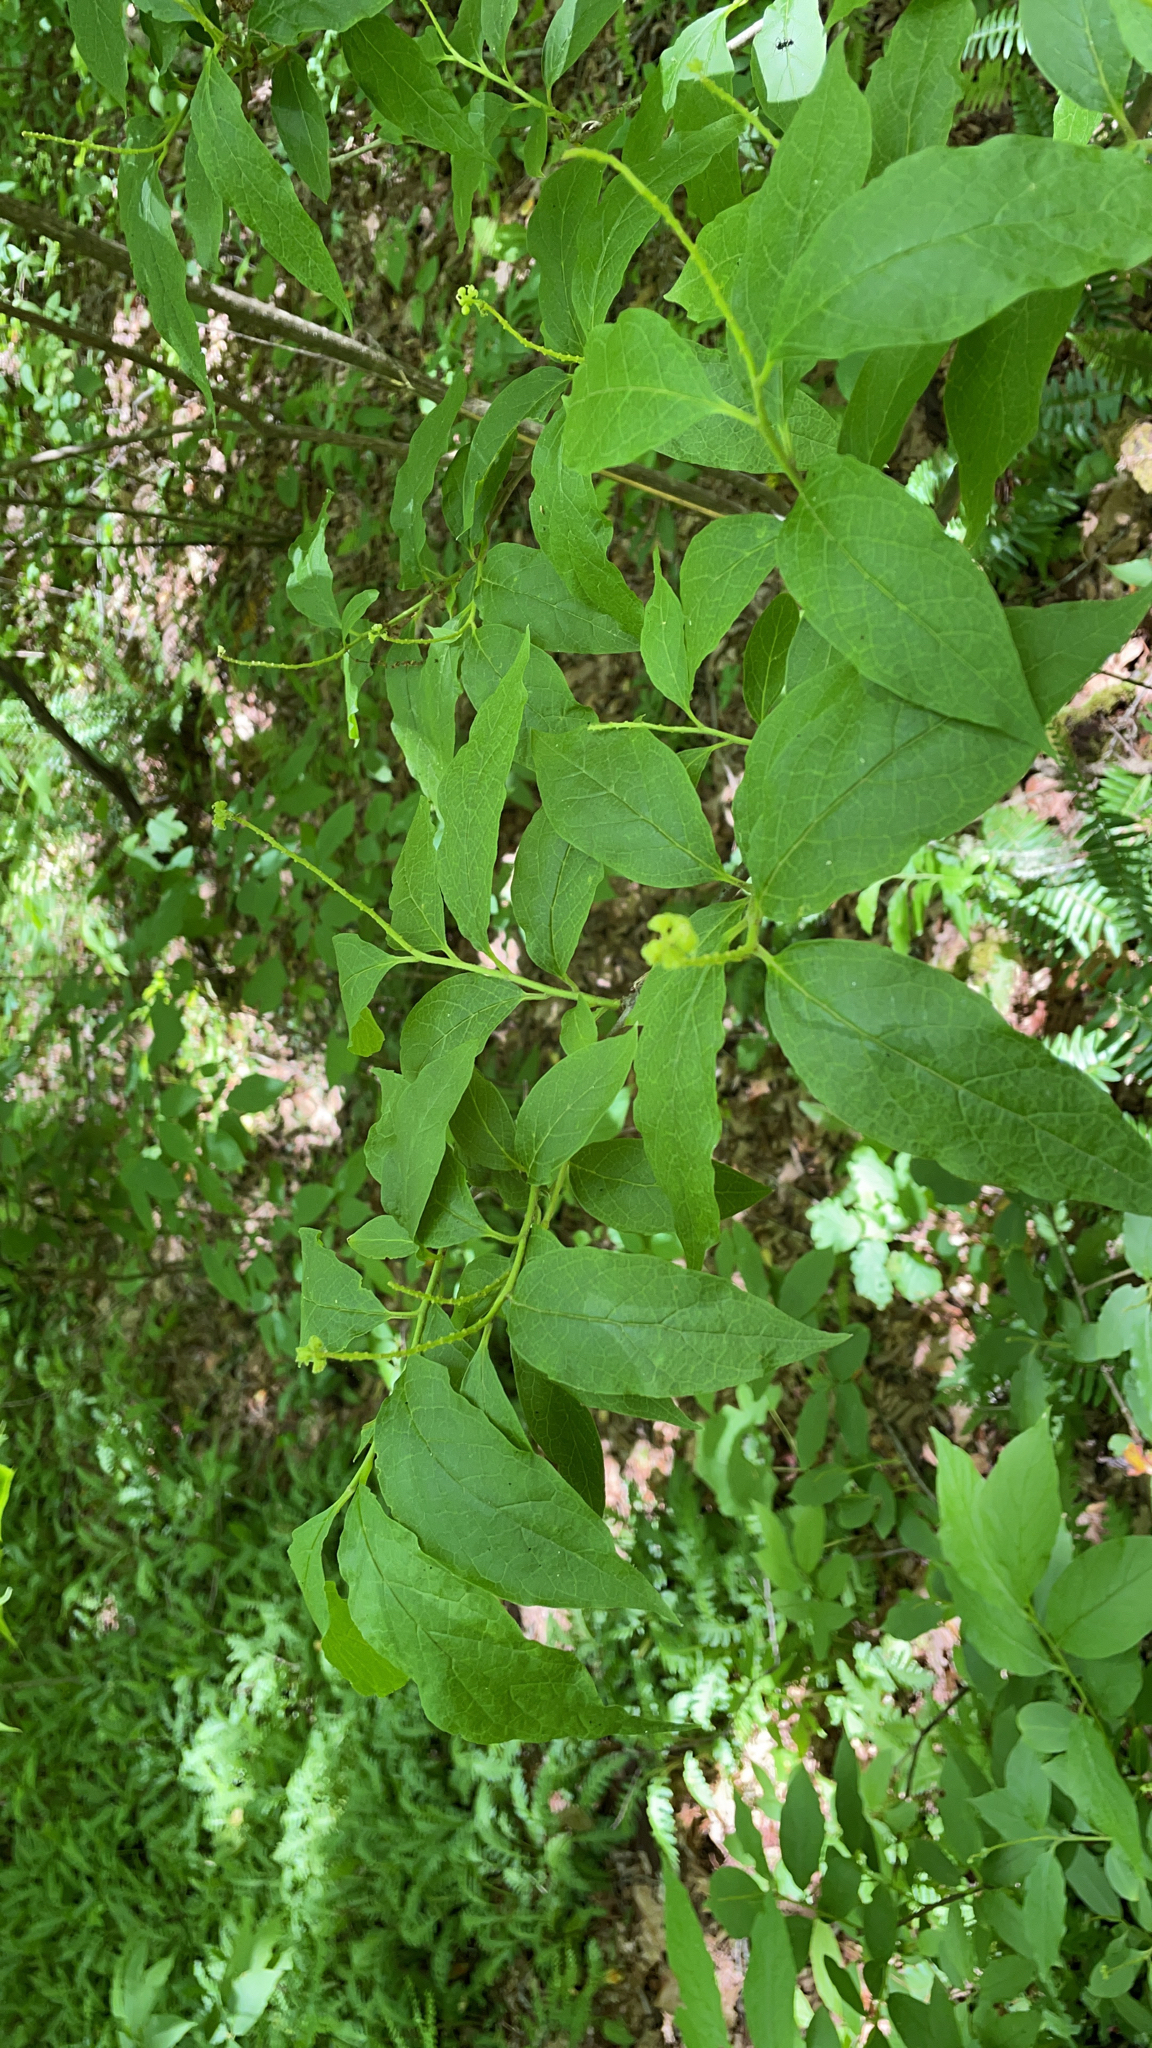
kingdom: Plantae
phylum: Tracheophyta
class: Magnoliopsida
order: Santalales
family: Cervantesiaceae
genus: Pyrularia
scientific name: Pyrularia pubera
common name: Oilnut
